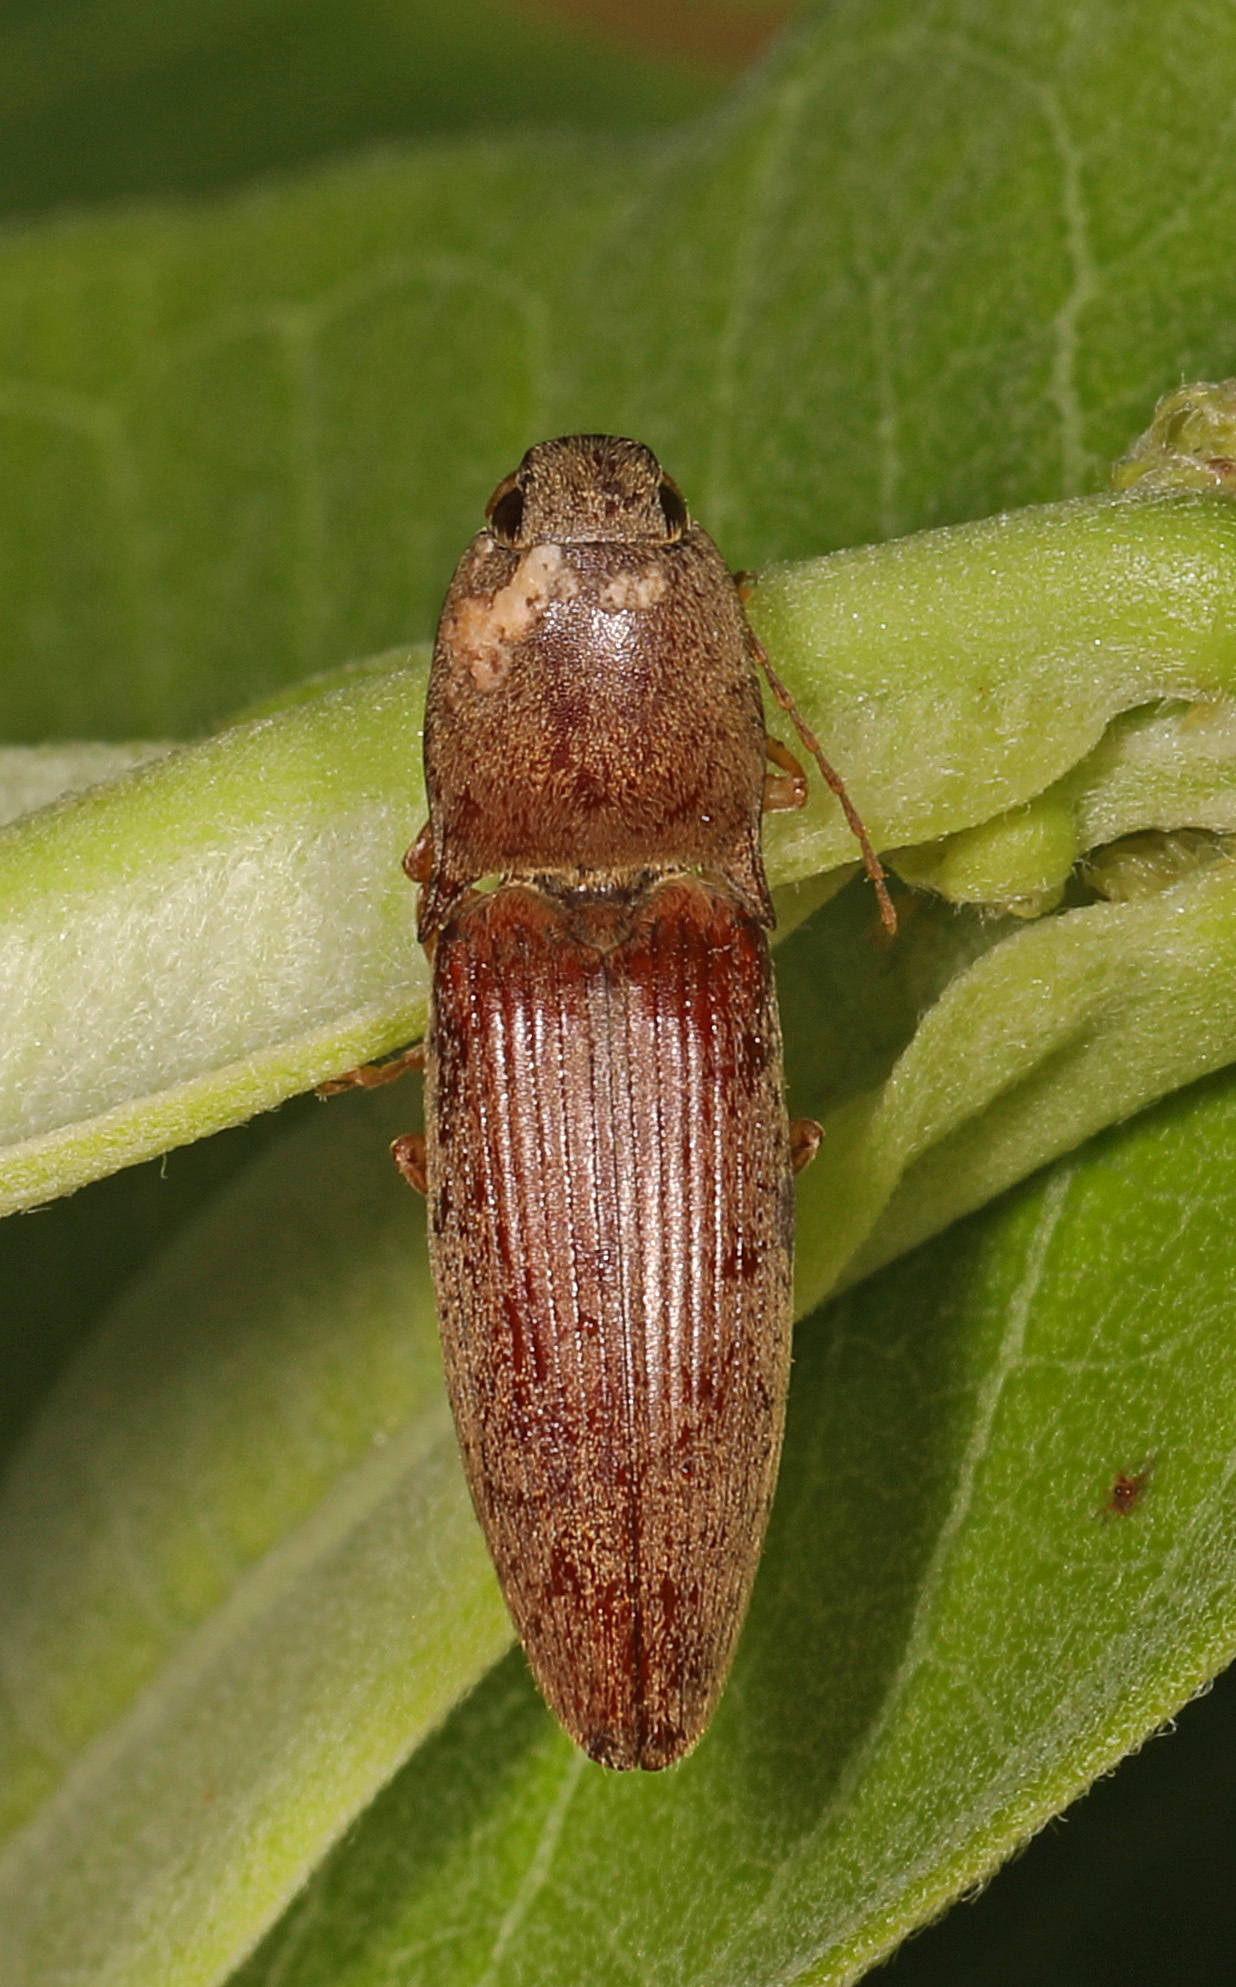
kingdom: Animalia
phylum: Arthropoda
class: Insecta
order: Coleoptera
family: Elateridae
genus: Monocrepidius
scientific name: Monocrepidius lividus
